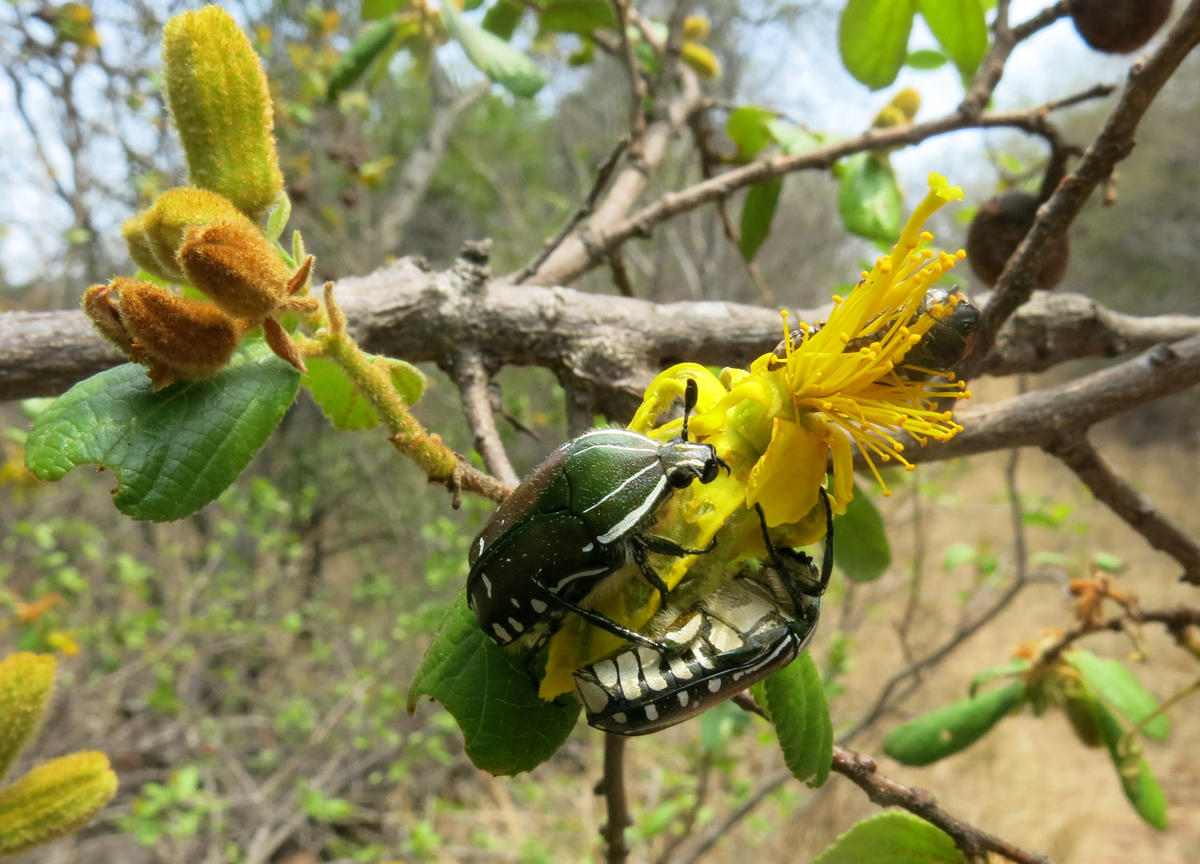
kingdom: Plantae
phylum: Tracheophyta
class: Magnoliopsida
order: Malvales
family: Malvaceae
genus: Grewia
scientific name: Grewia hexamita
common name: Giant raisin
